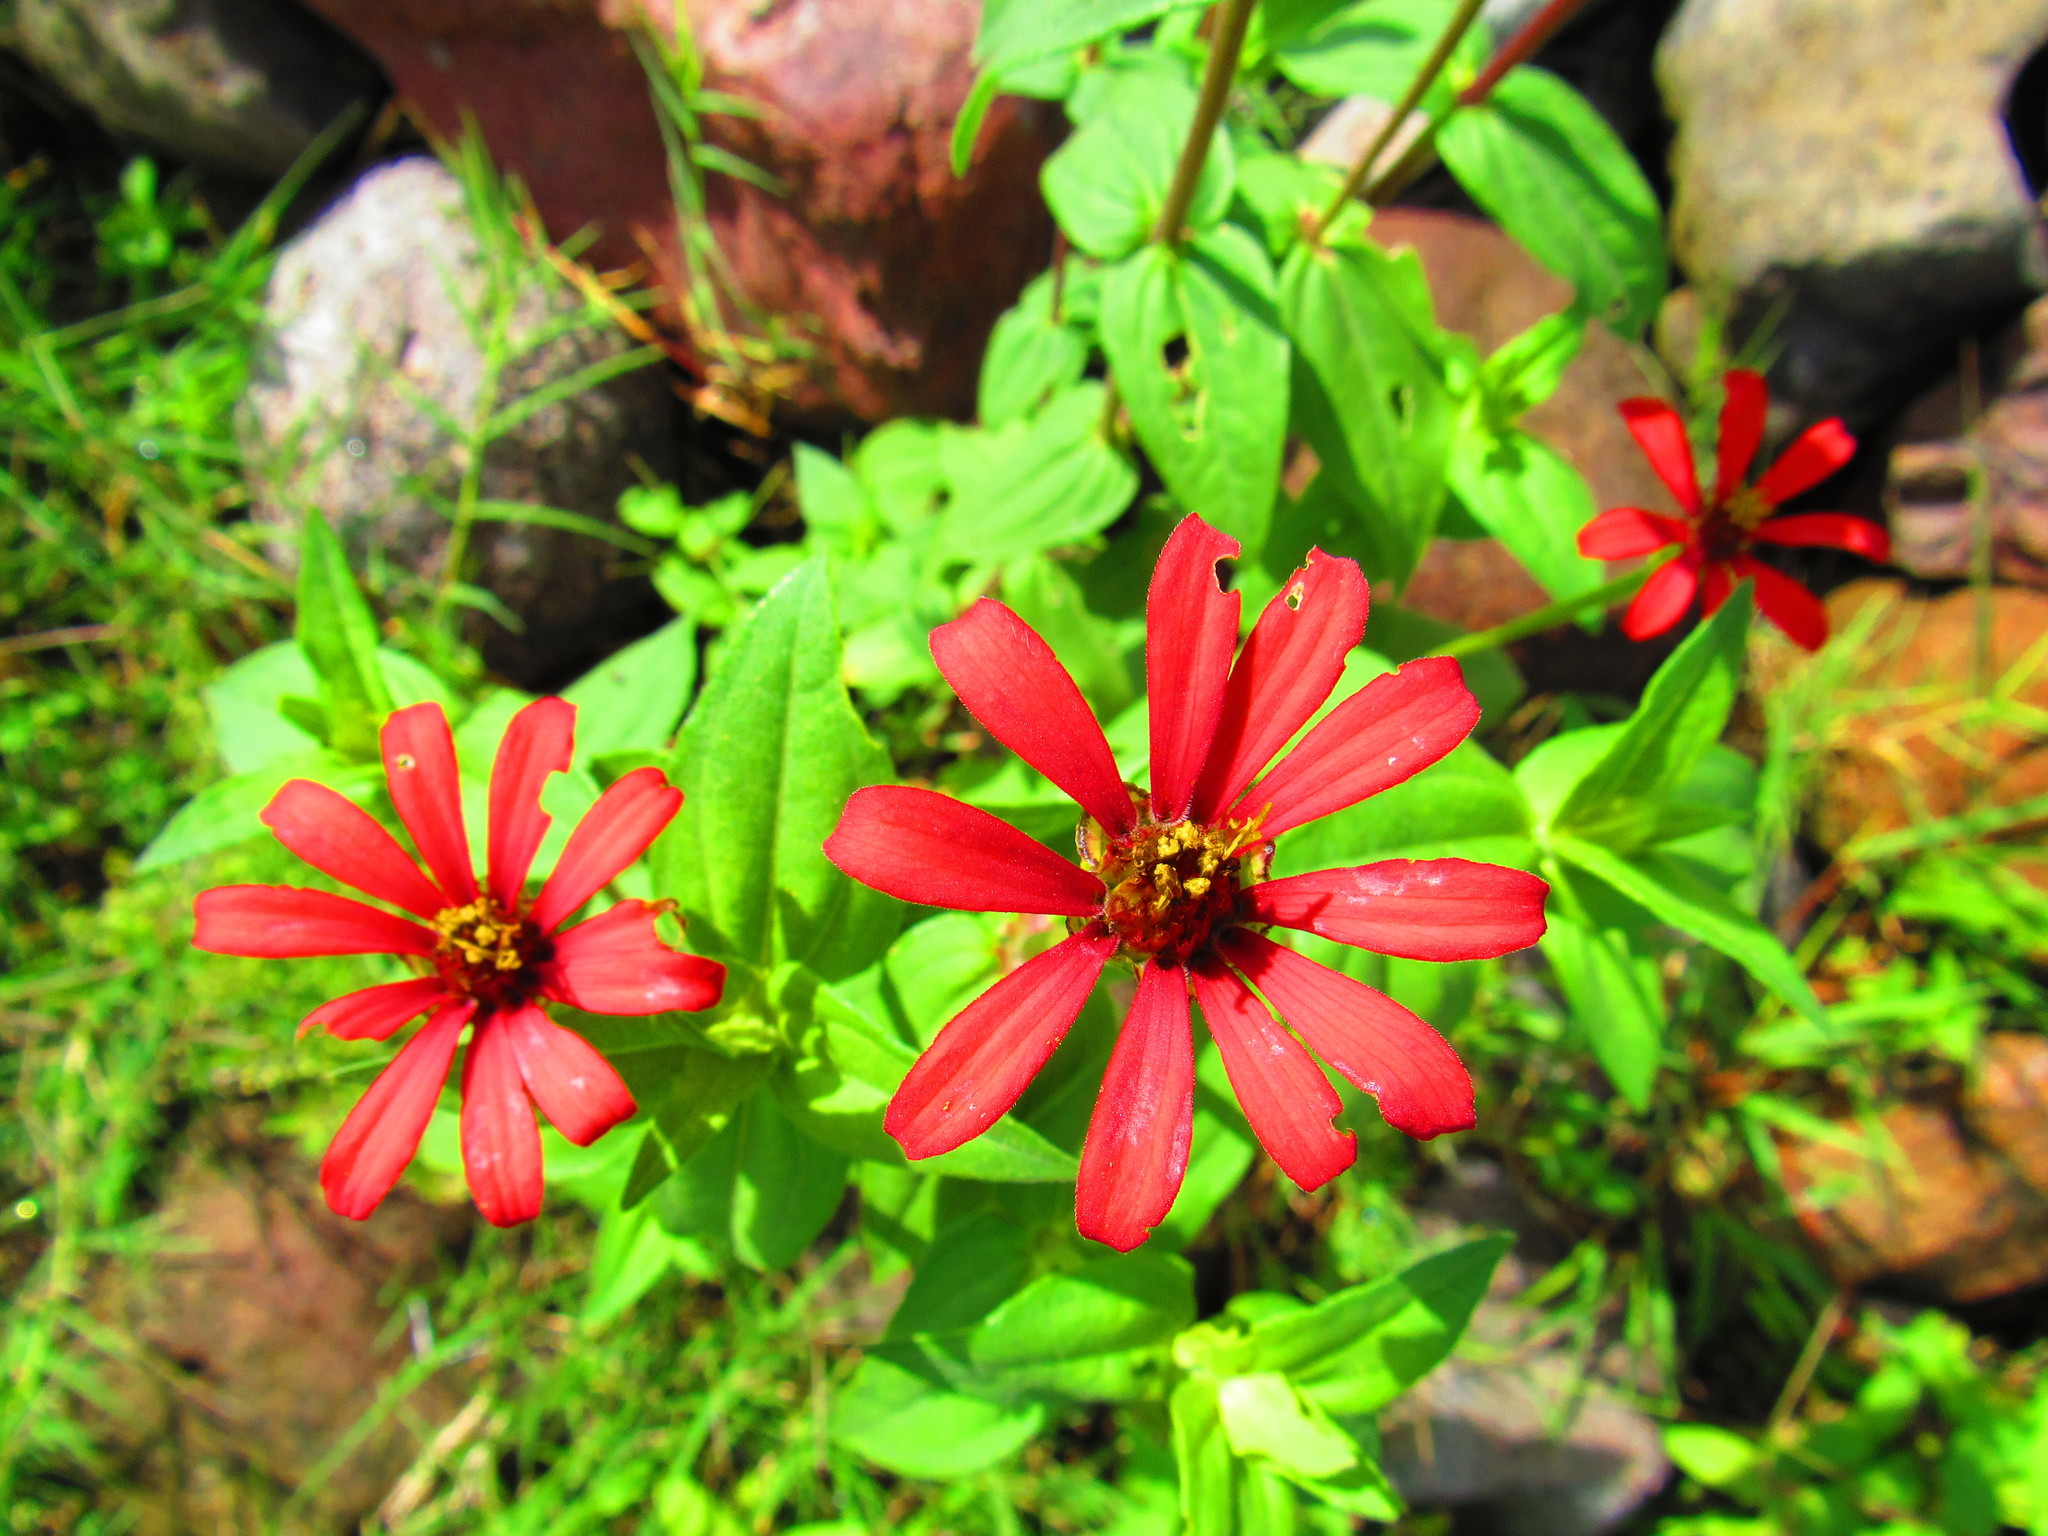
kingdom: Plantae
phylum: Tracheophyta
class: Magnoliopsida
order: Asterales
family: Asteraceae
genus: Zinnia
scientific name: Zinnia peruviana
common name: Peruvian zinnia
